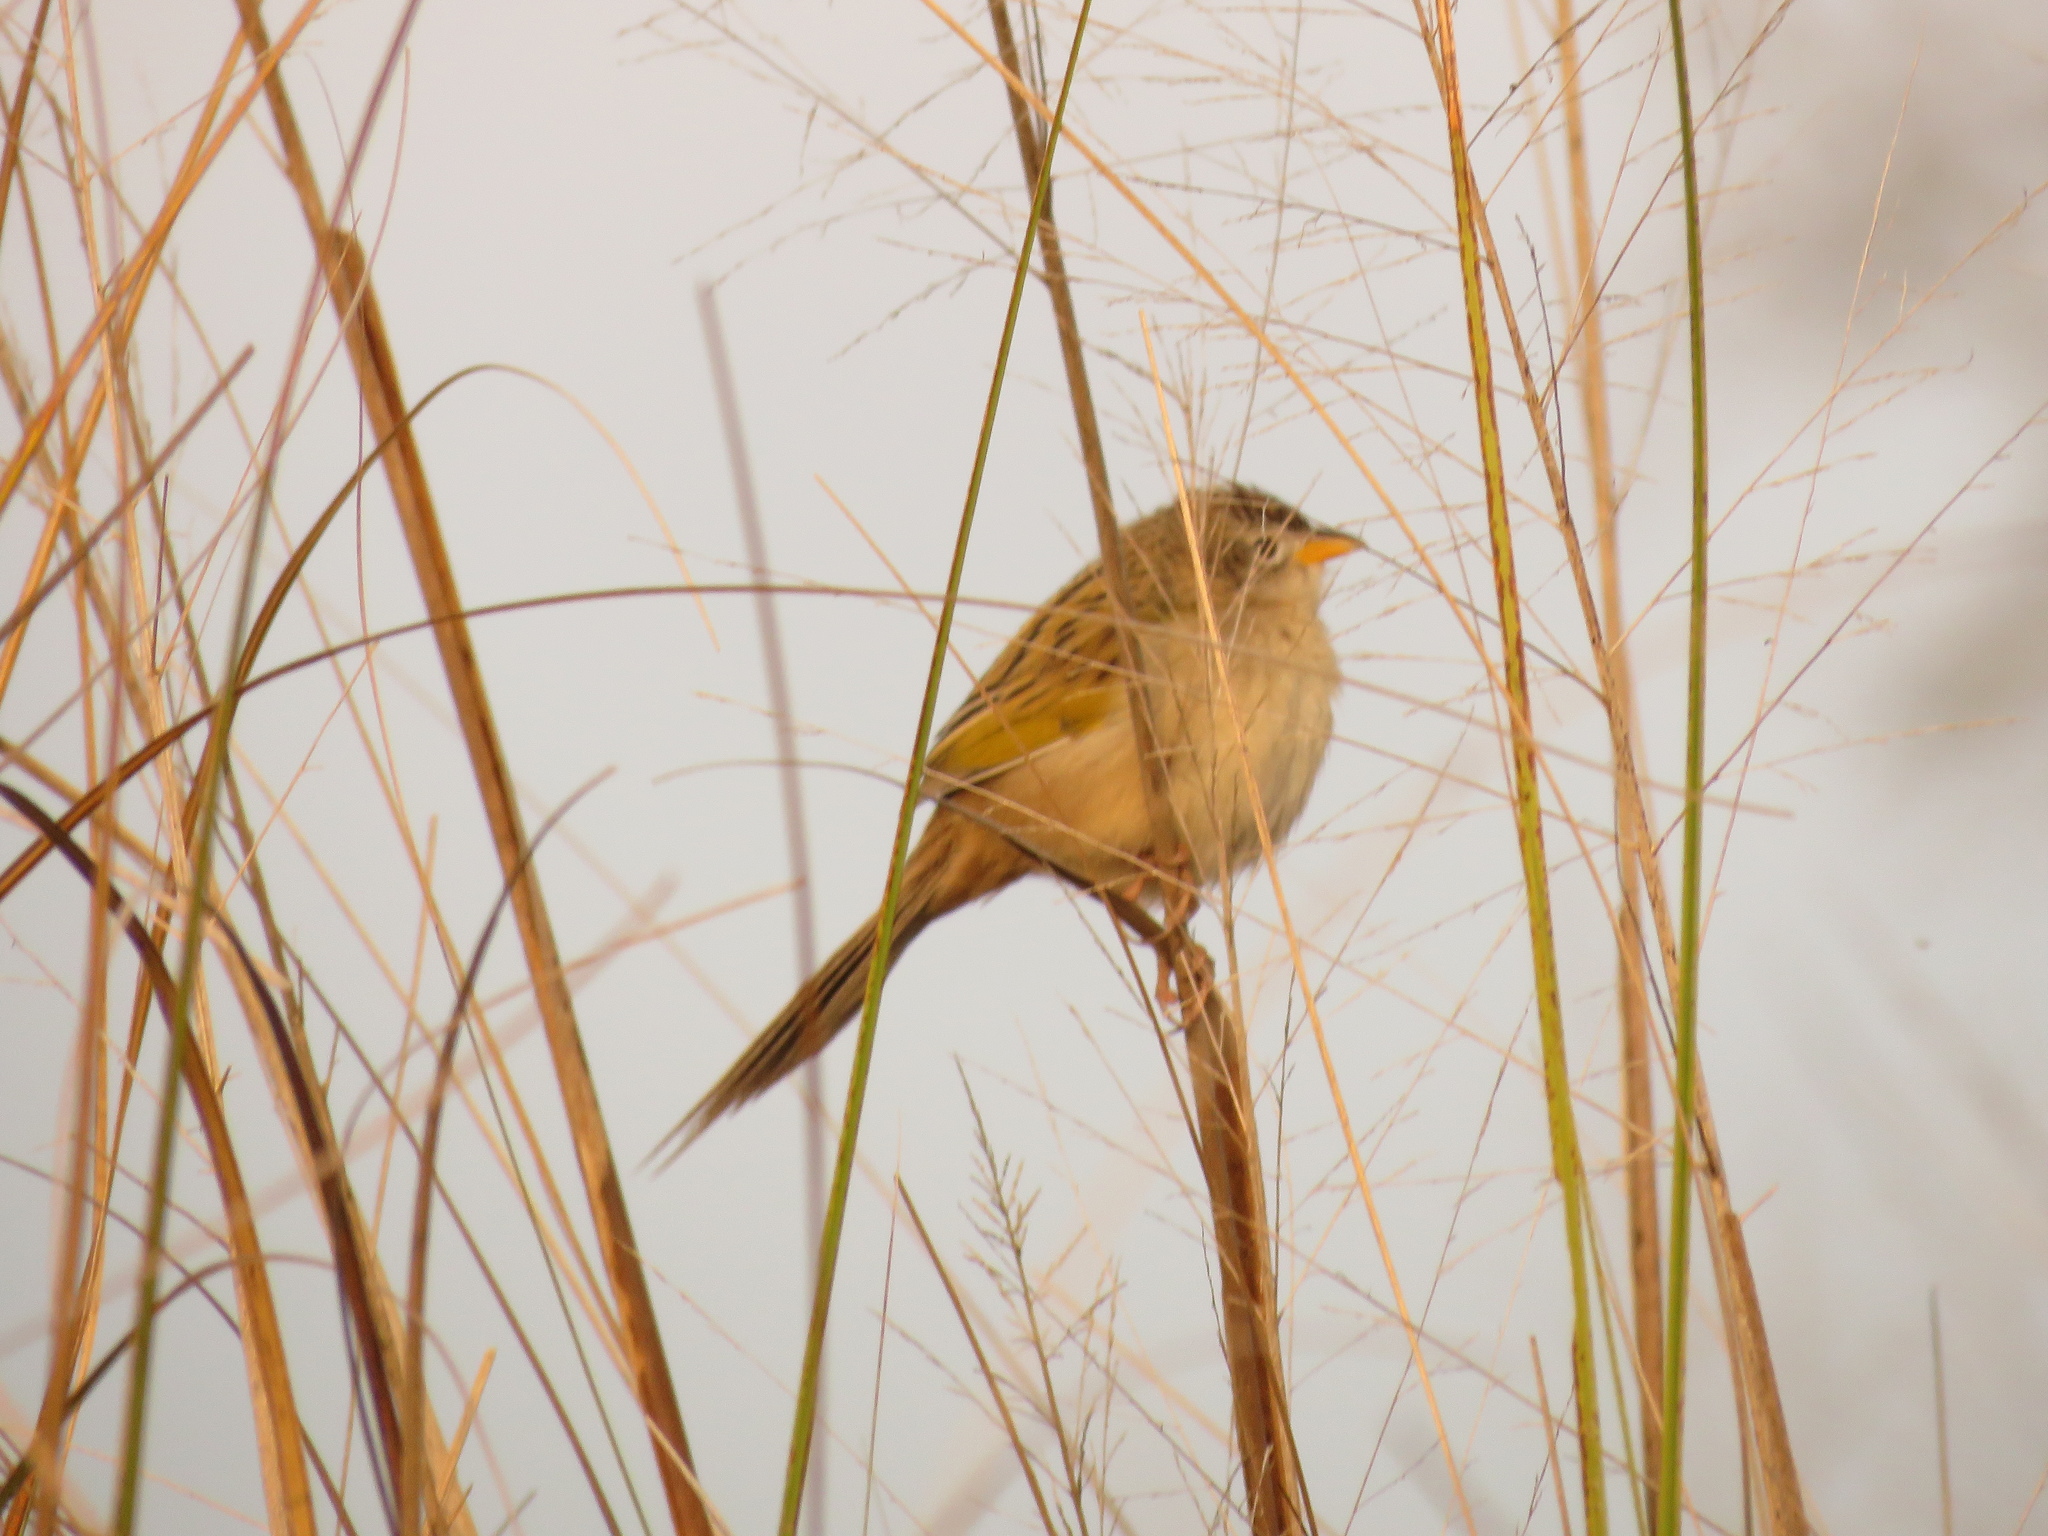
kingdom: Animalia
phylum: Chordata
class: Aves
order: Passeriformes
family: Thraupidae
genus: Emberizoides
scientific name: Emberizoides herbicola
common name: Wedge-tailed grass-finch
